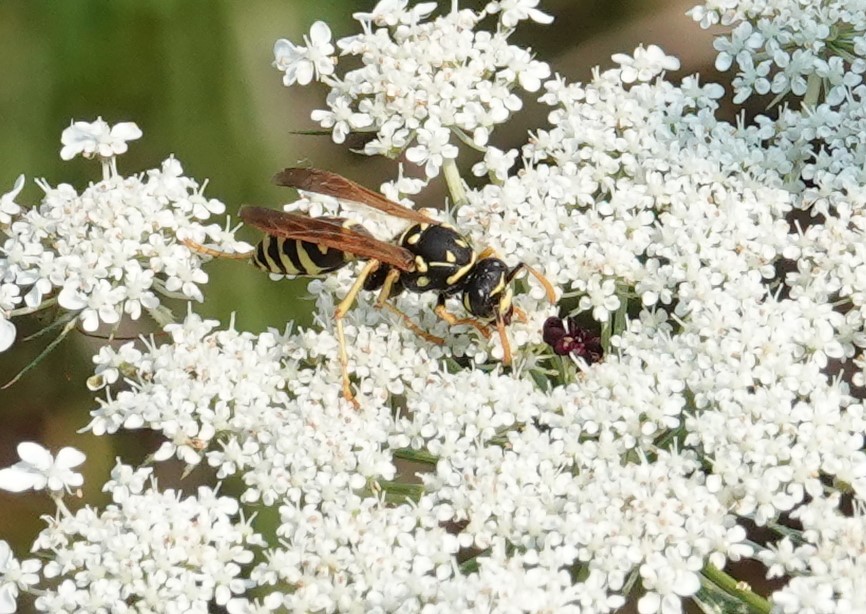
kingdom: Animalia
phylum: Arthropoda
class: Insecta
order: Hymenoptera
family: Eumenidae
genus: Polistes
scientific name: Polistes dominula
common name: Paper wasp
